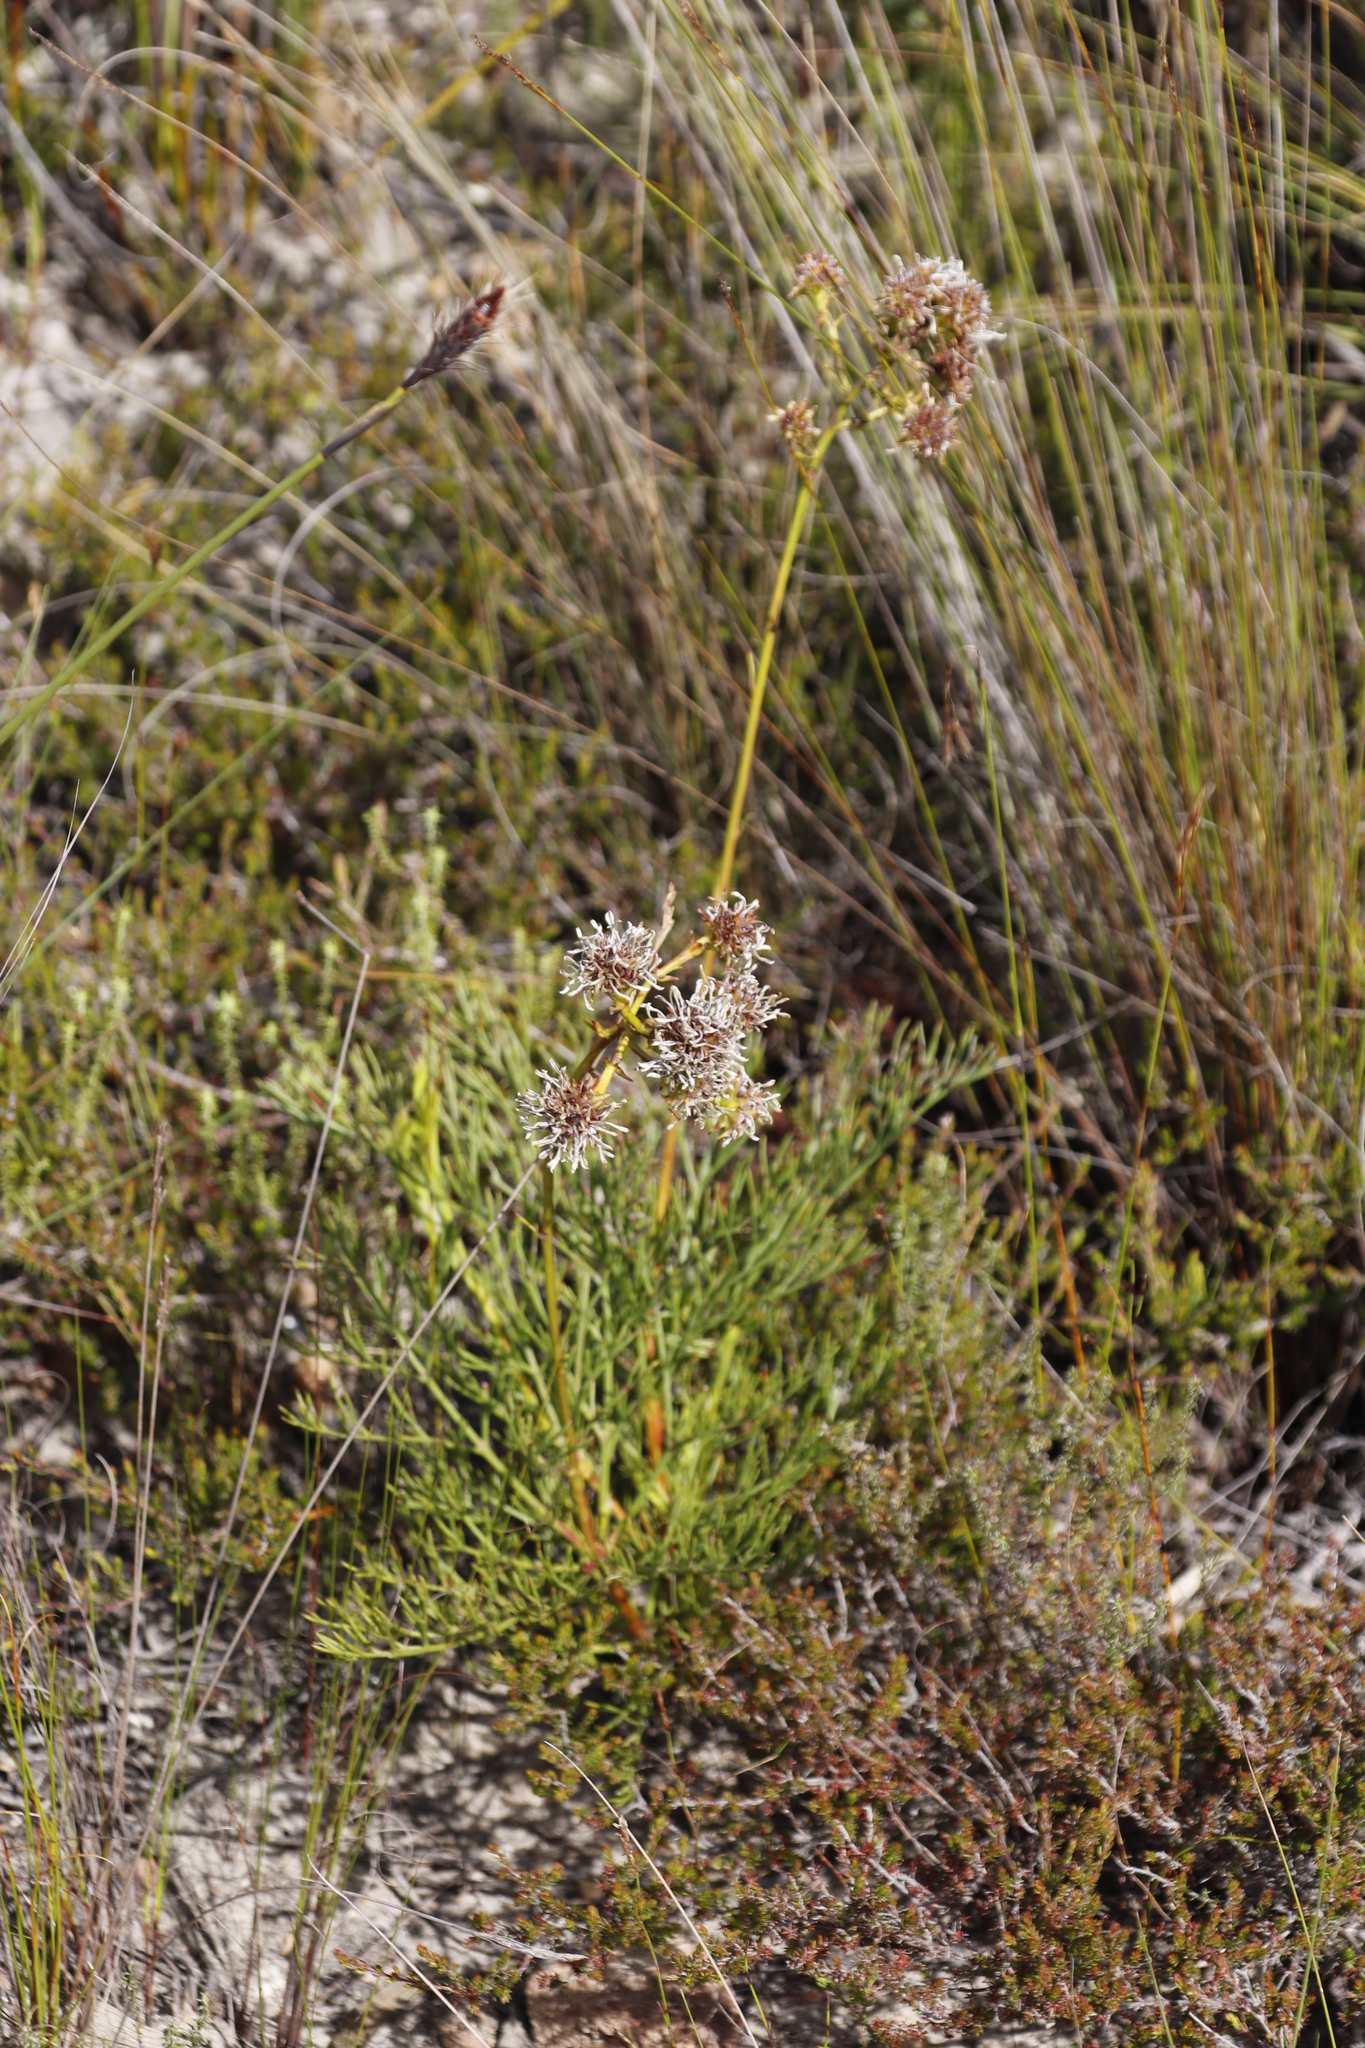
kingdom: Plantae
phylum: Tracheophyta
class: Magnoliopsida
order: Proteales
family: Proteaceae
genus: Serruria
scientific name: Serruria elongata
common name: Long-stalk spiderhead
